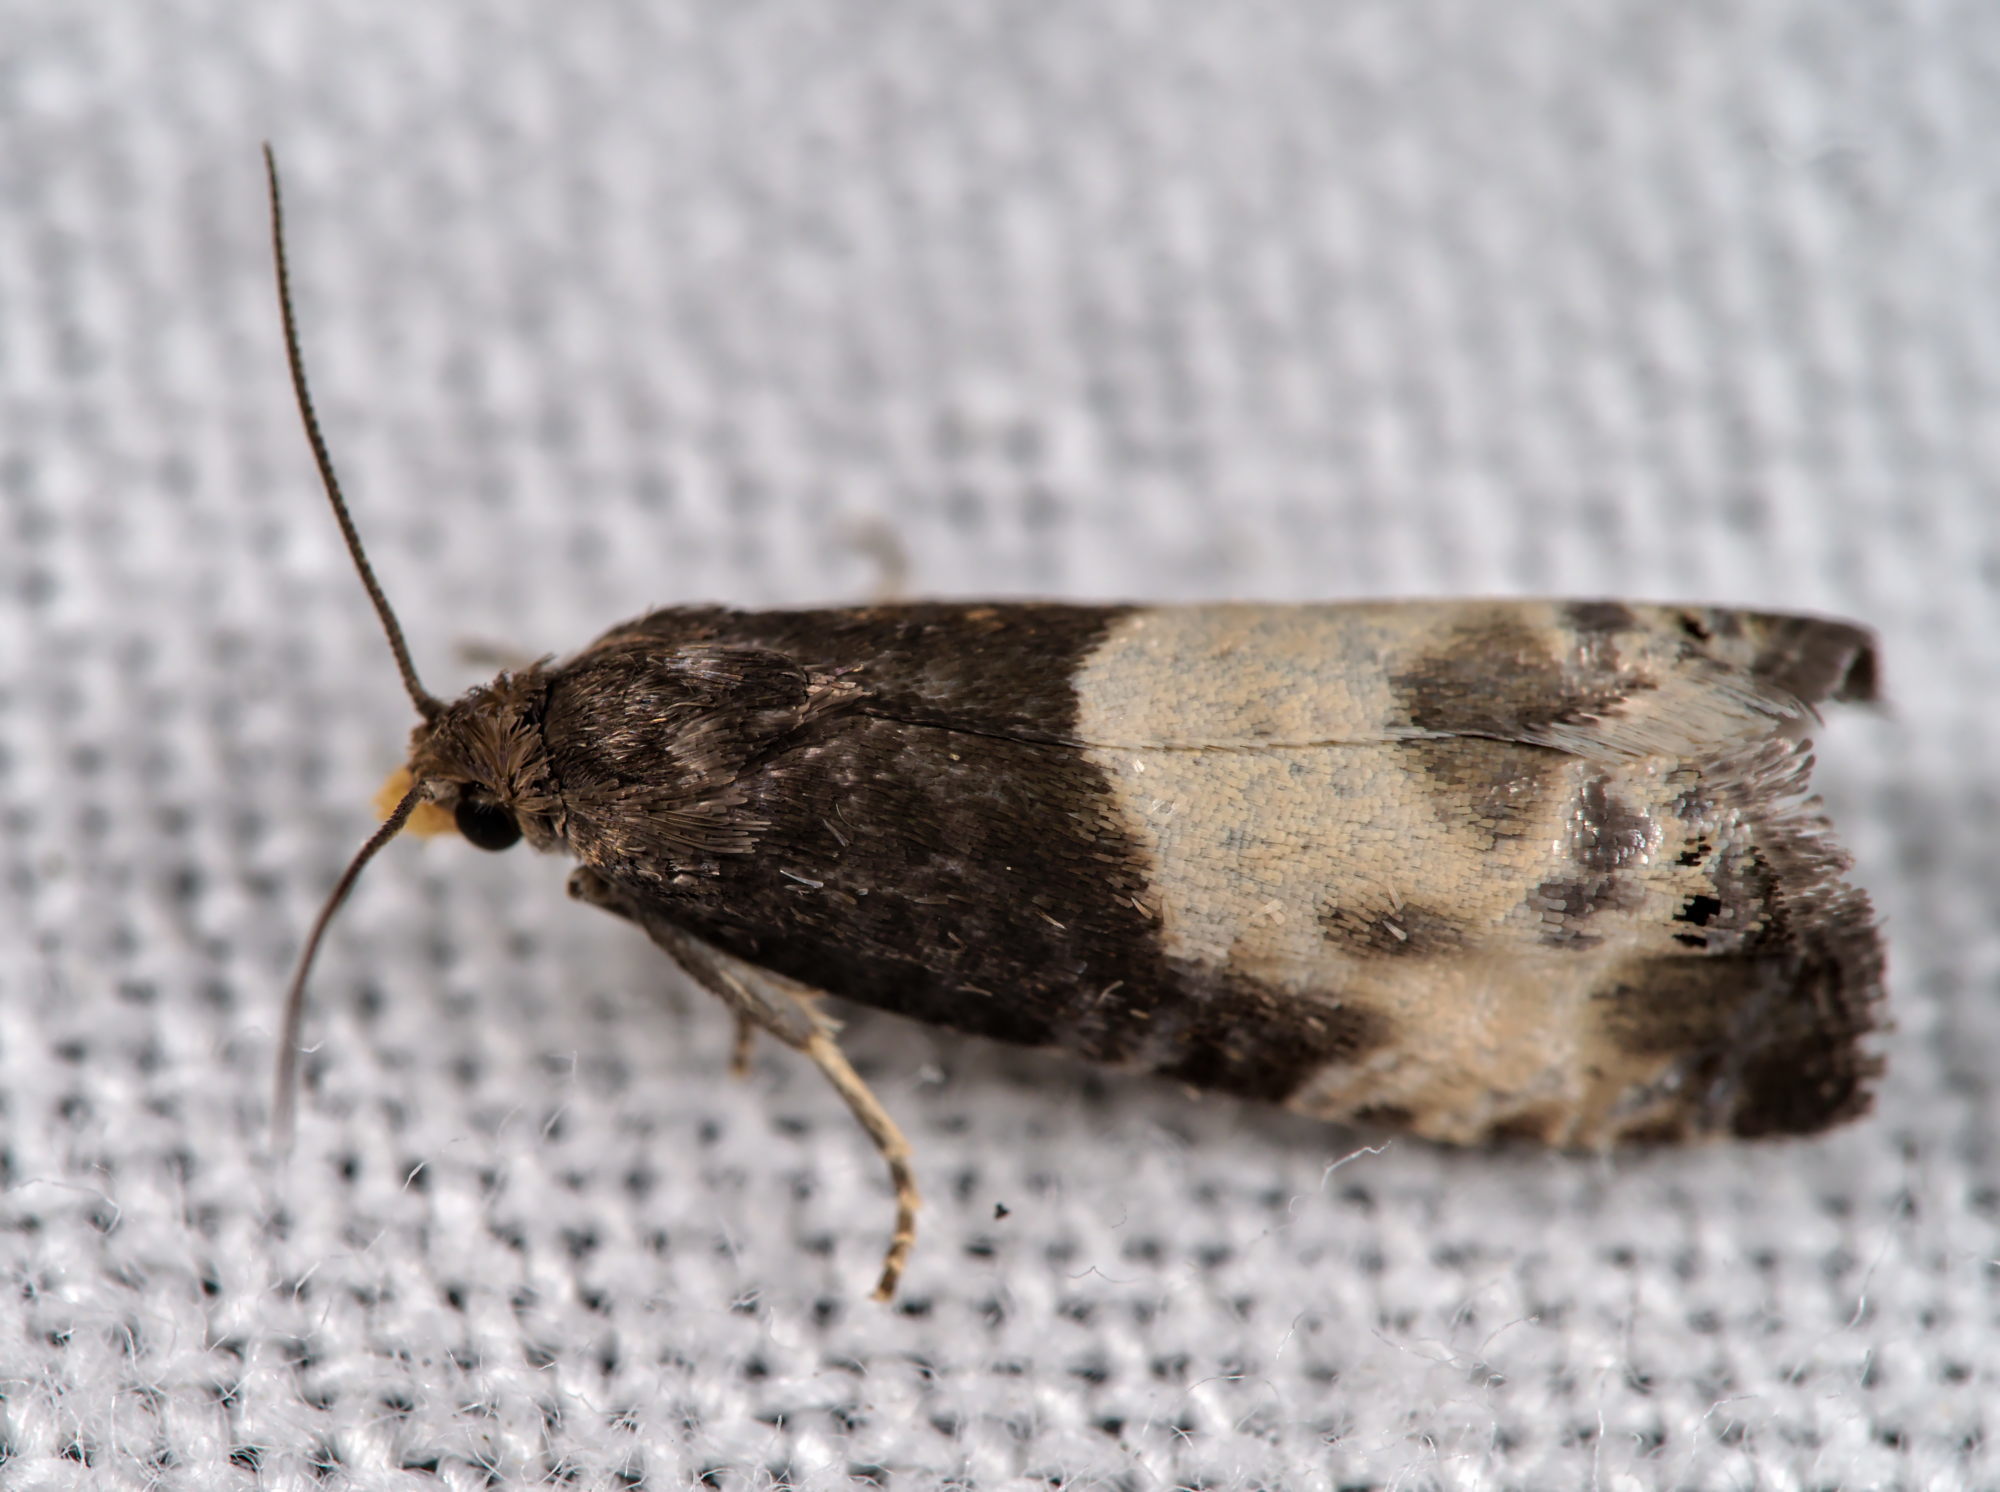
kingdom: Animalia
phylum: Arthropoda
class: Insecta
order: Lepidoptera
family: Tortricidae
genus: Notocelia
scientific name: Notocelia cynosbatella
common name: Yellow-faced bell moth
